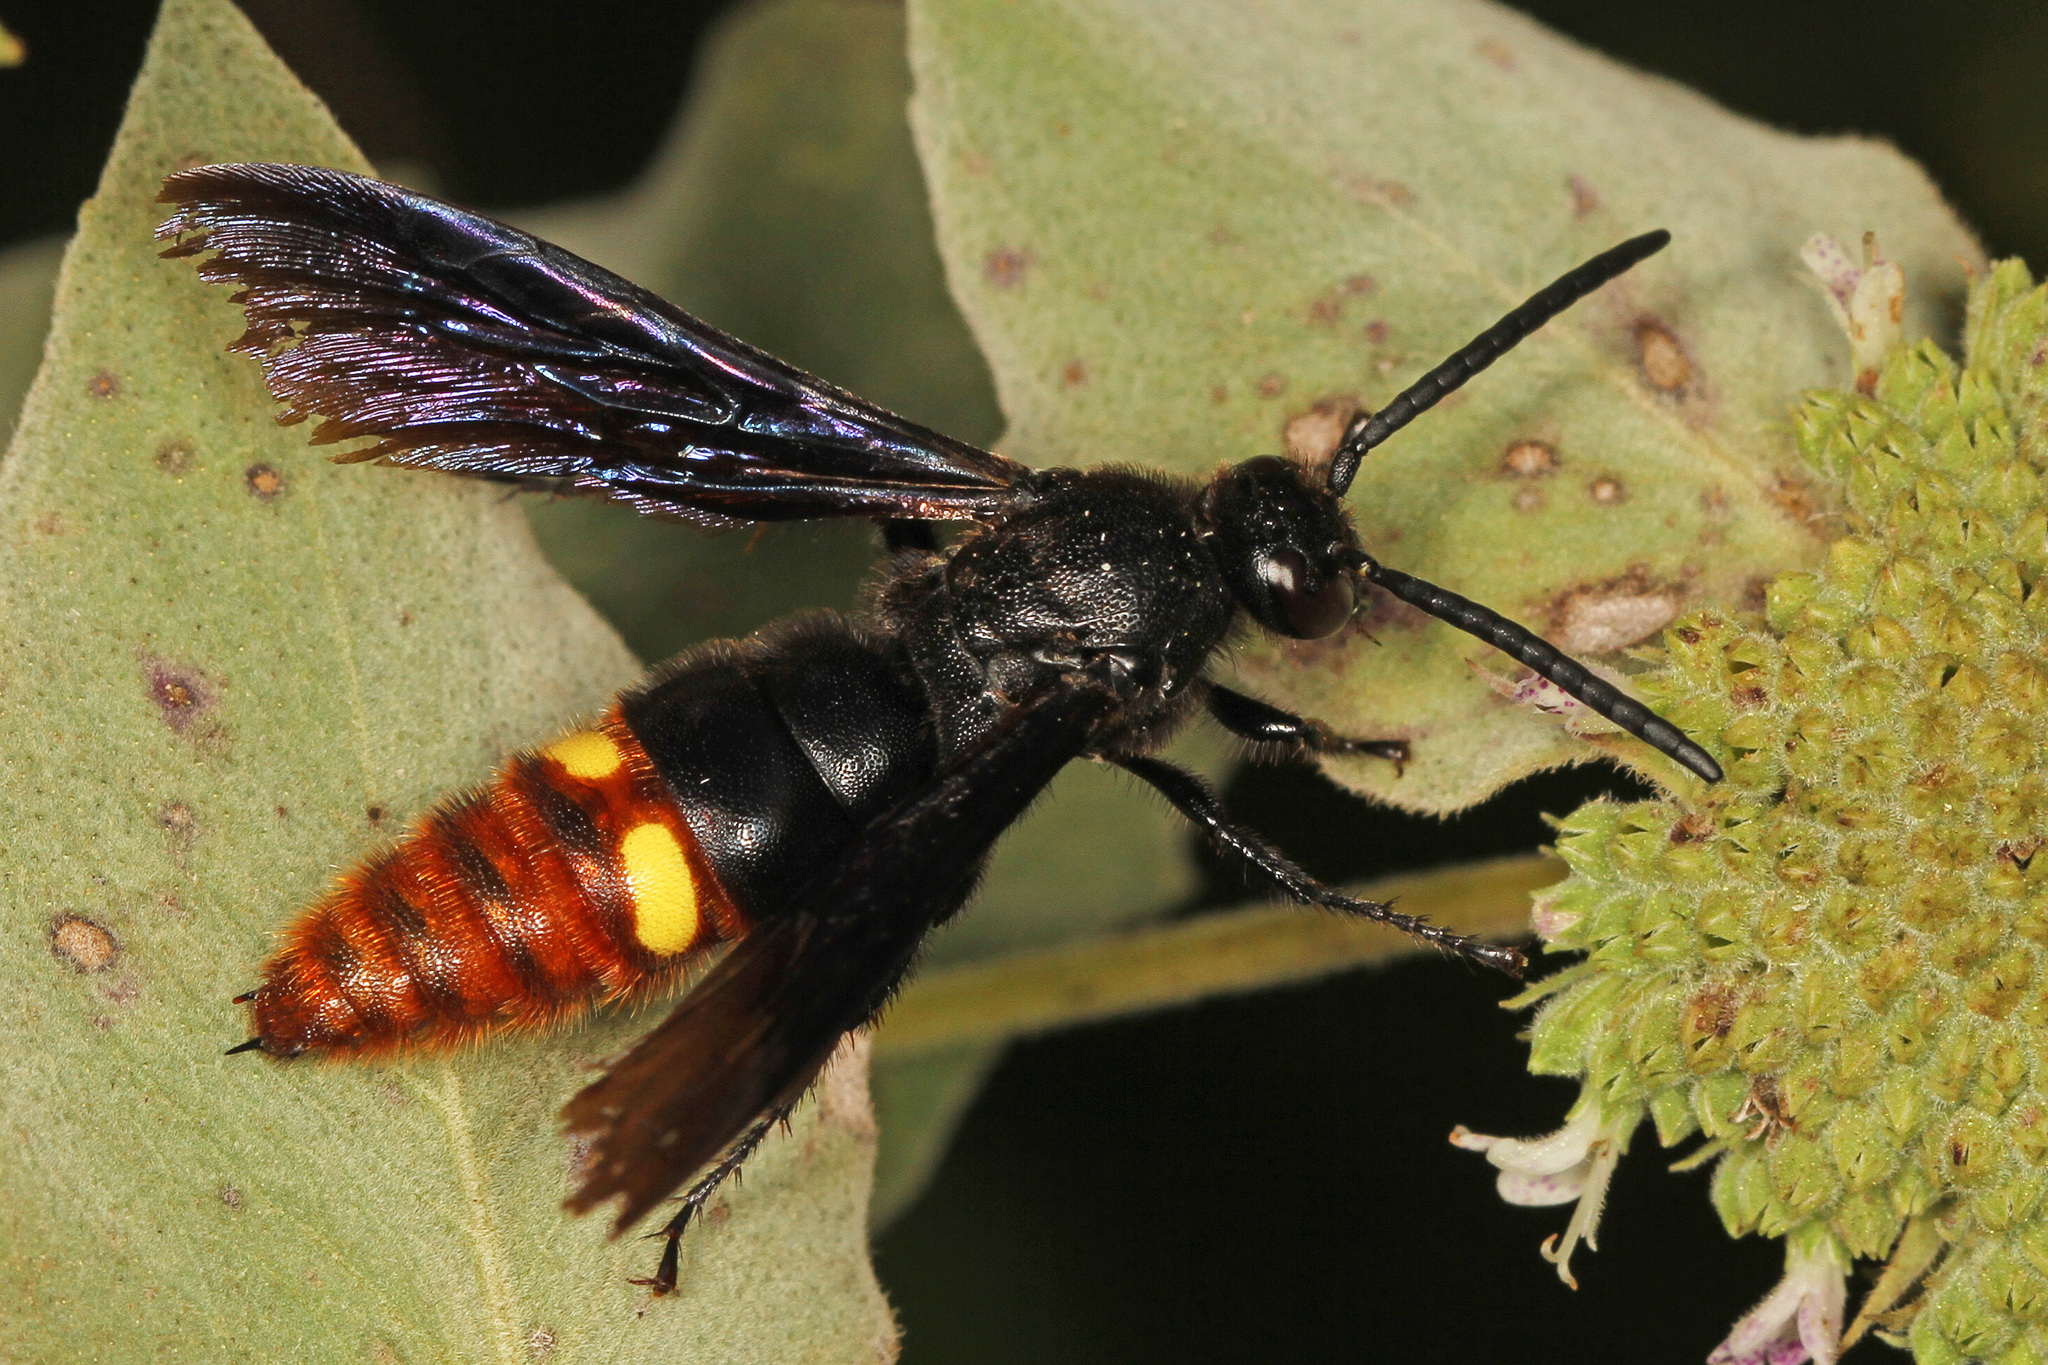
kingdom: Animalia
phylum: Arthropoda
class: Insecta
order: Hymenoptera
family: Scoliidae
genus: Scolia
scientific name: Scolia dubia
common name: Blue-winged scoliid wasp
